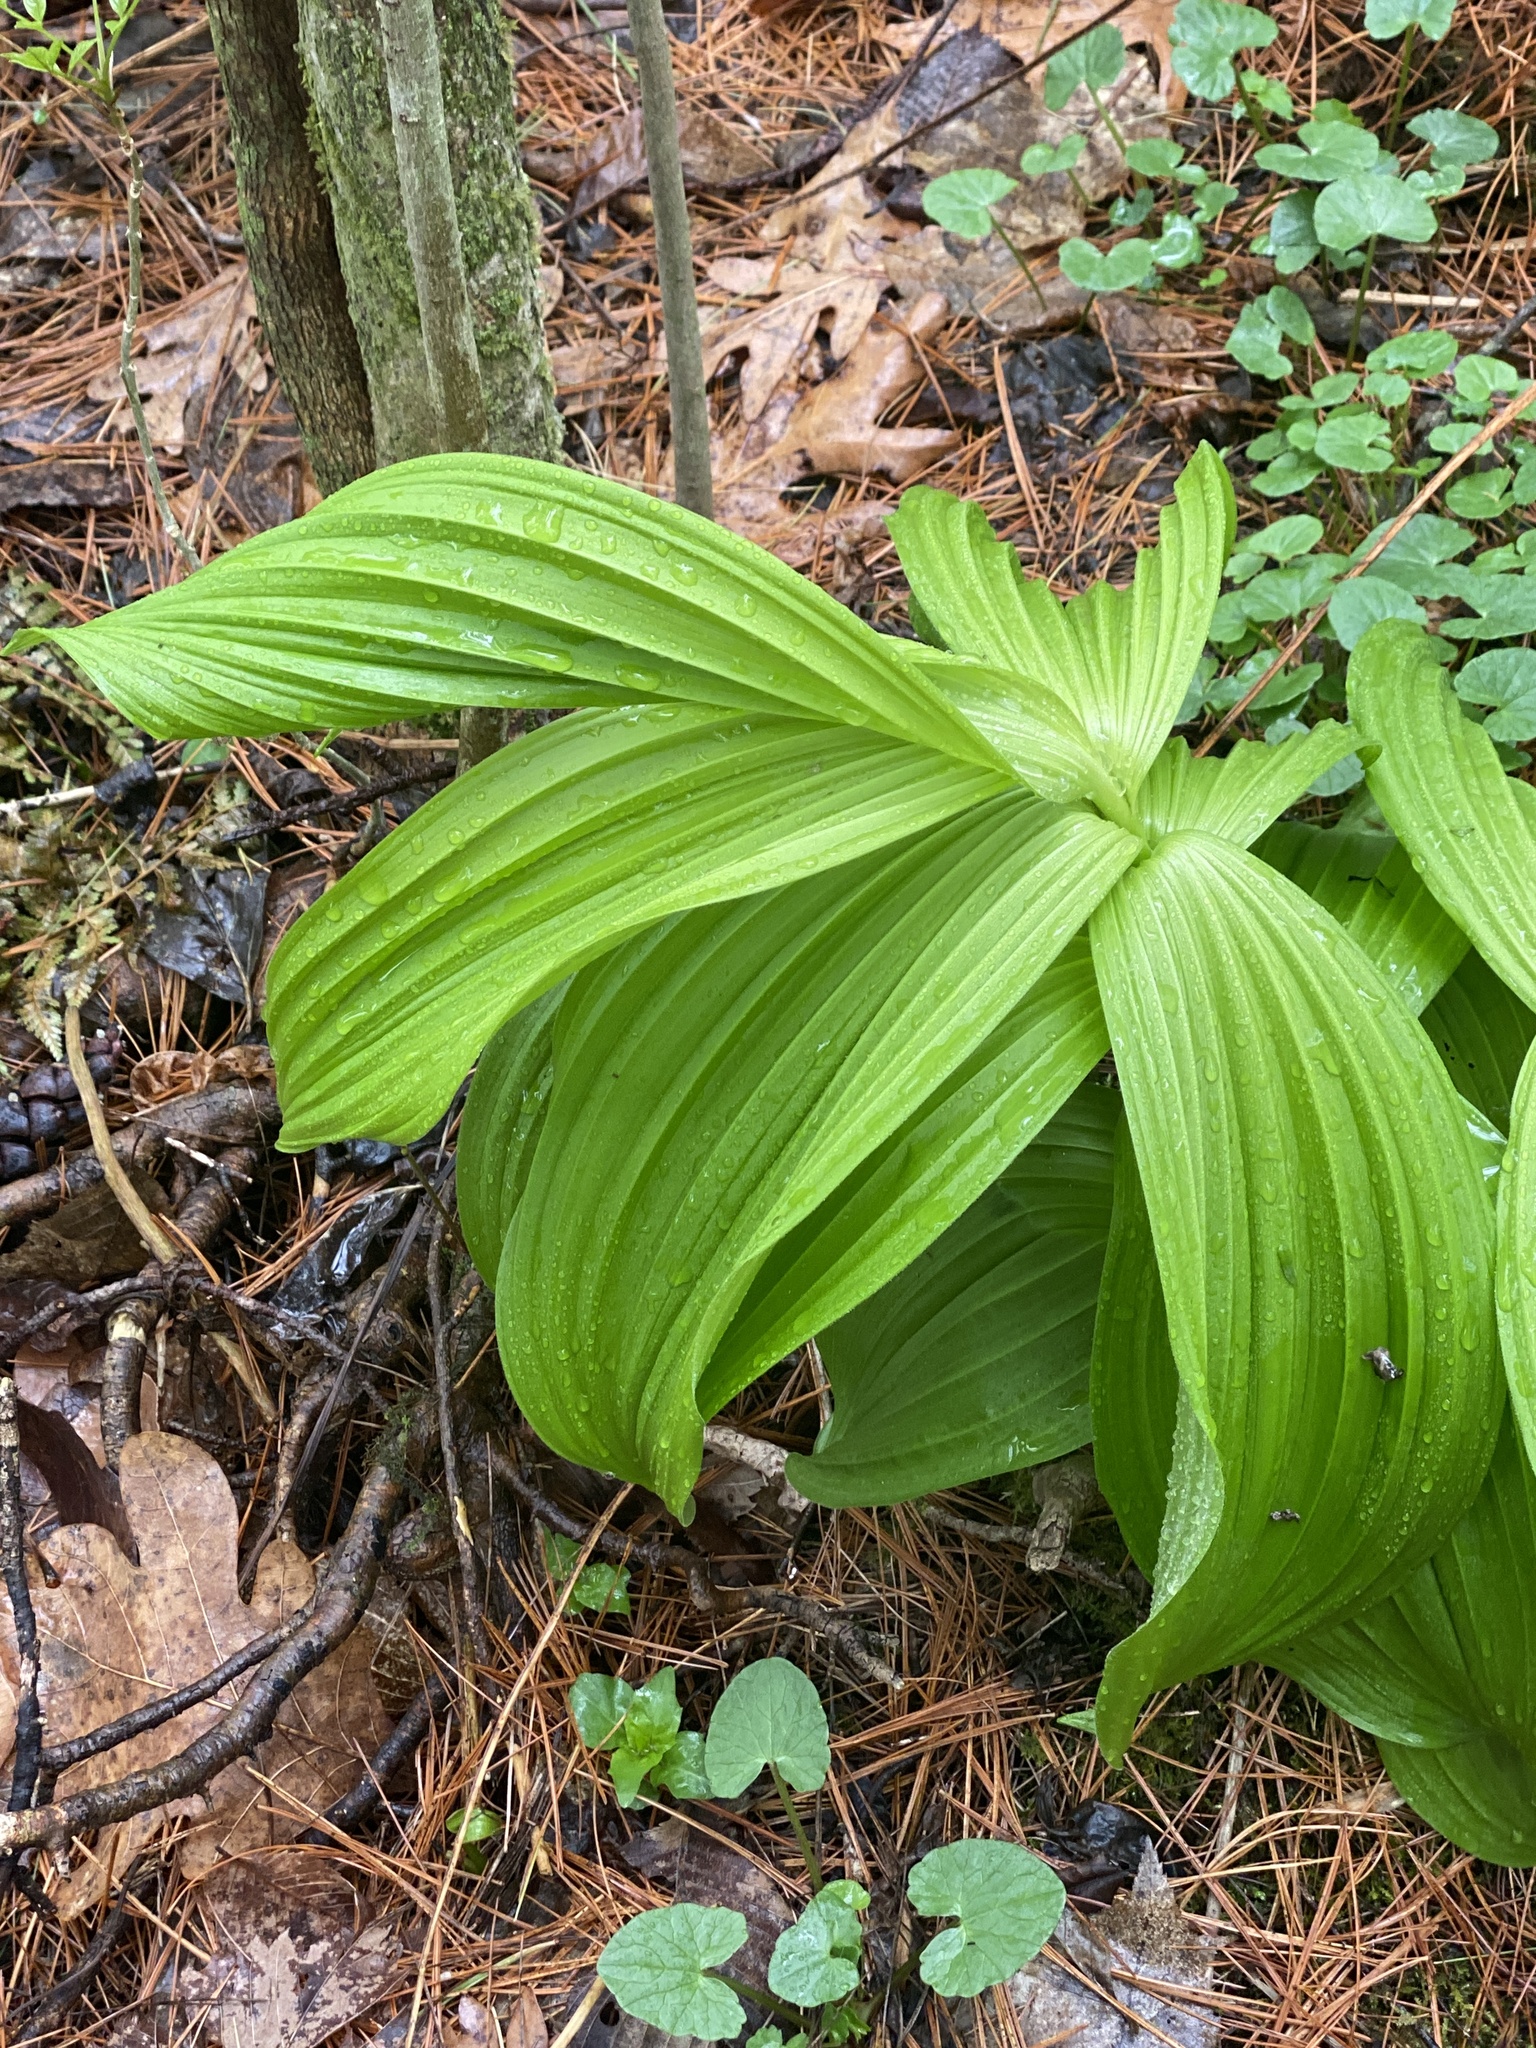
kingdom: Plantae
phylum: Tracheophyta
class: Liliopsida
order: Liliales
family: Melanthiaceae
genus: Veratrum
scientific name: Veratrum viride
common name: American false hellebore
